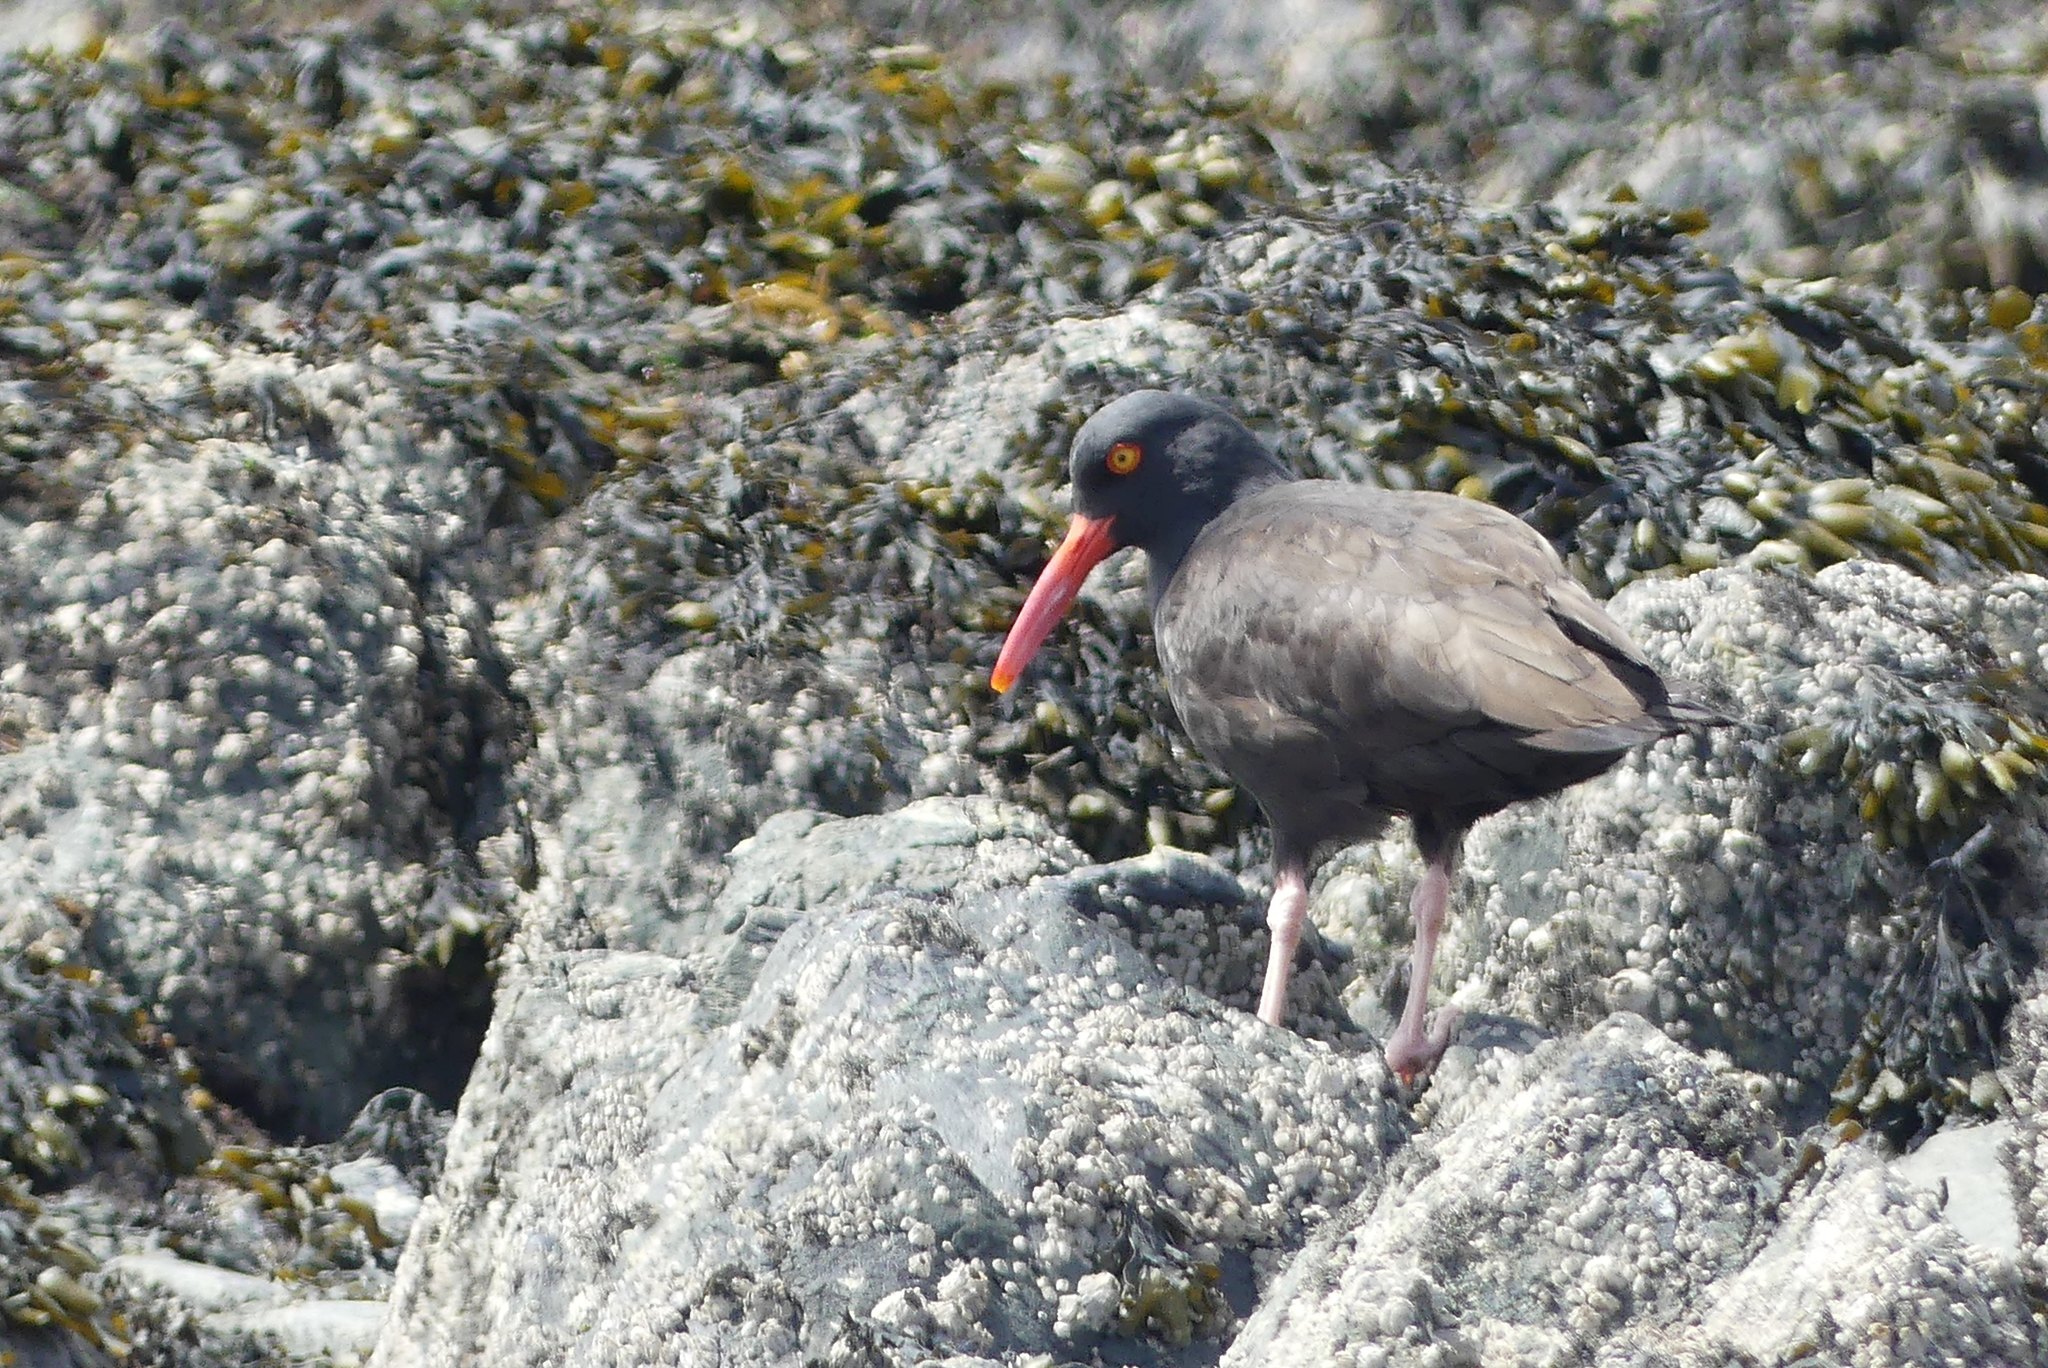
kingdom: Animalia
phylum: Chordata
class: Aves
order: Charadriiformes
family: Haematopodidae
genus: Haematopus
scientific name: Haematopus bachmani
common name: Black oystercatcher
